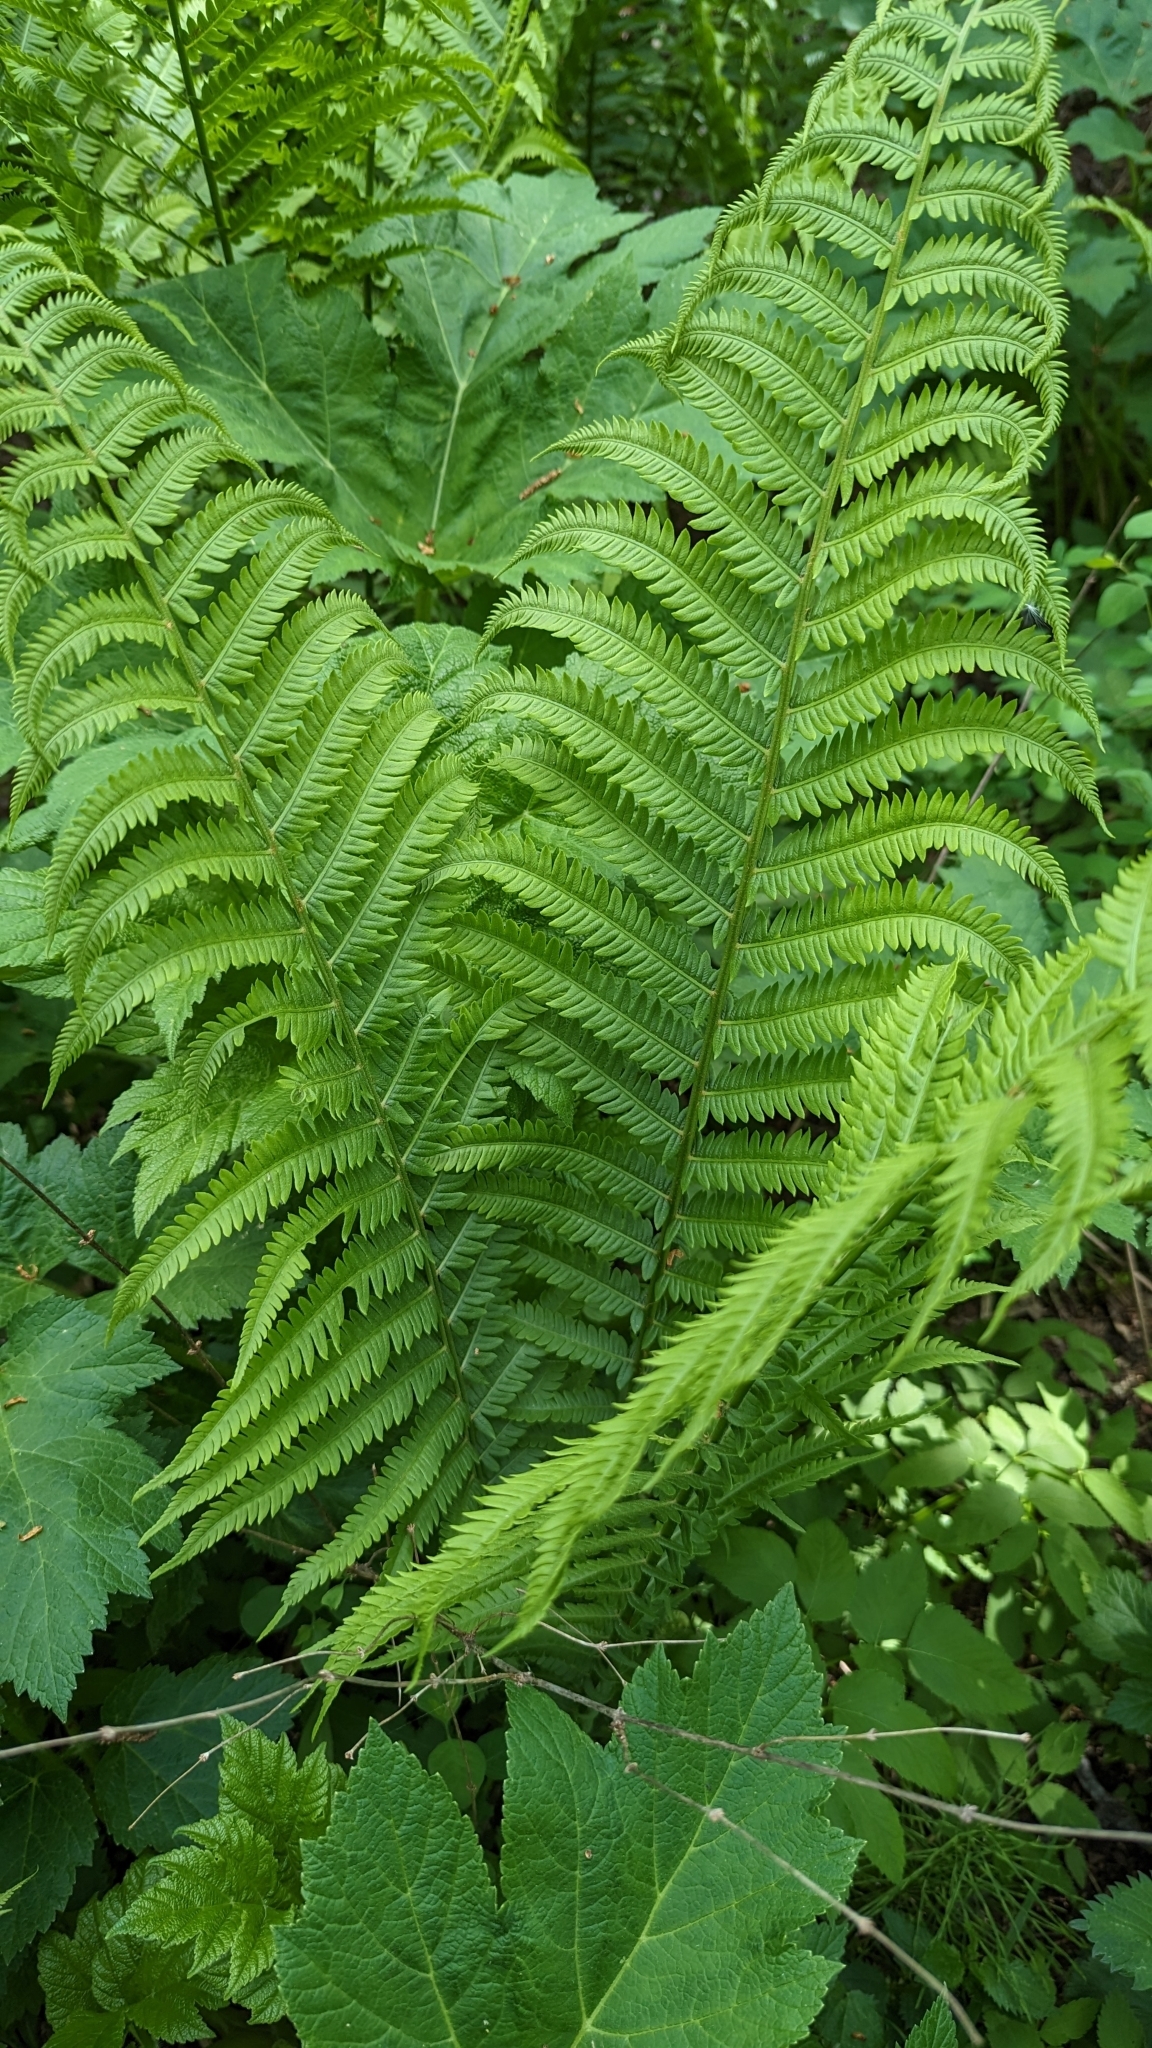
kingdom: Plantae
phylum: Tracheophyta
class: Polypodiopsida
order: Polypodiales
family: Onocleaceae
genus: Matteuccia
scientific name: Matteuccia struthiopteris
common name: Ostrich fern
